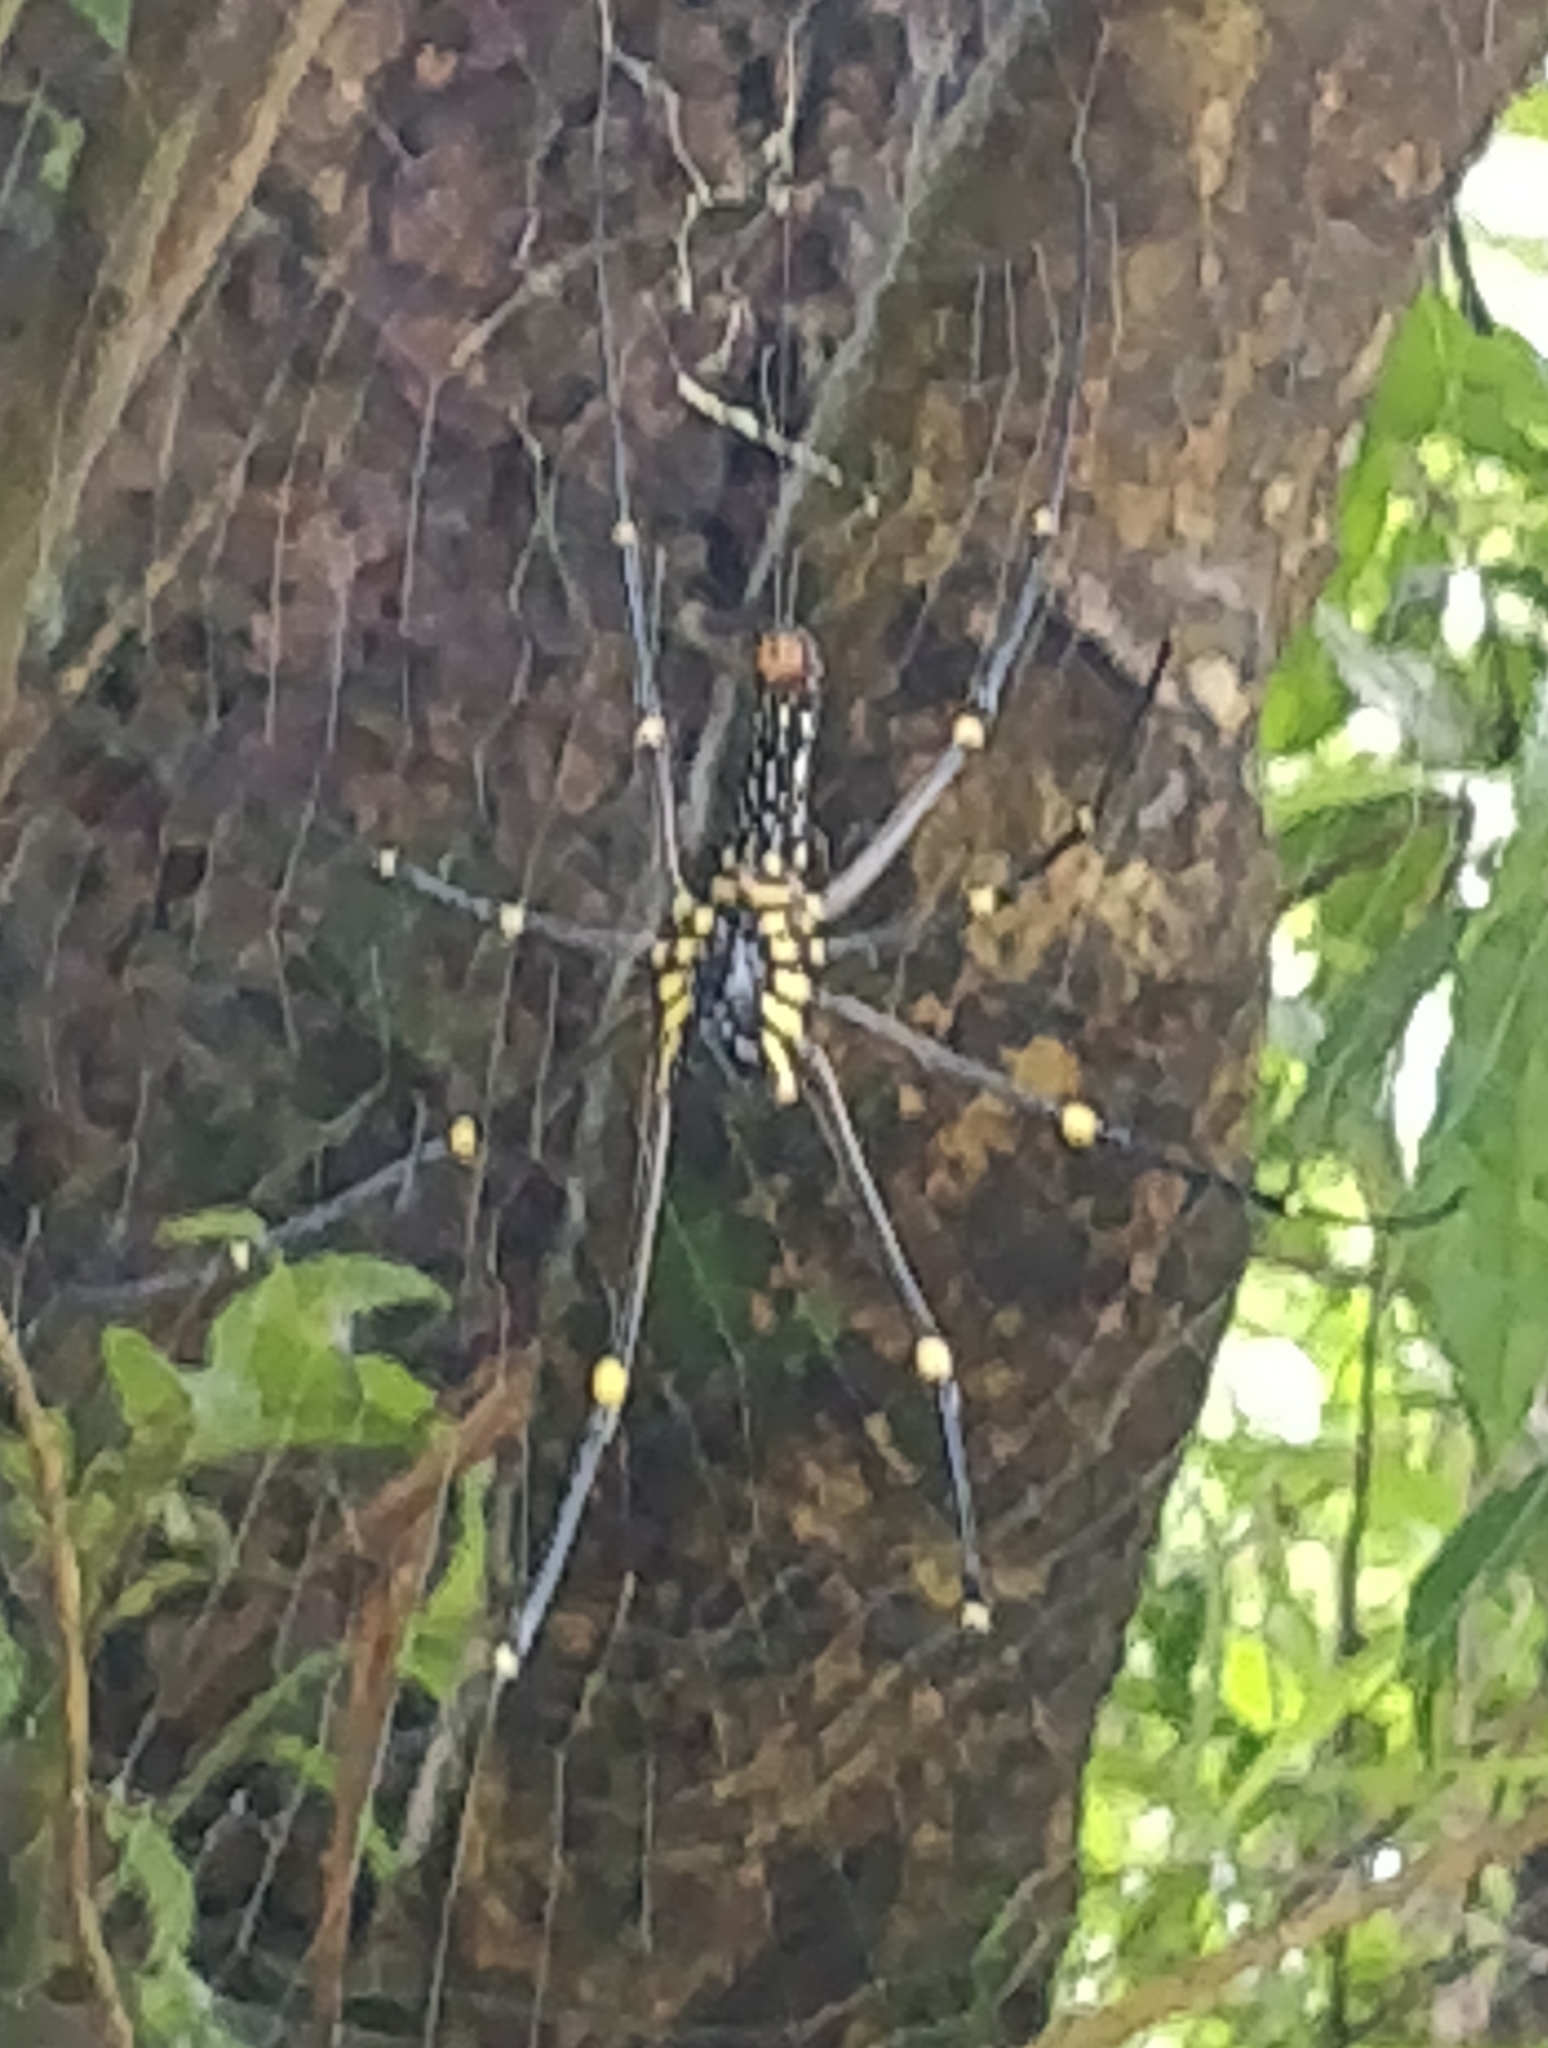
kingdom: Animalia
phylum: Arthropoda
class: Arachnida
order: Araneae
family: Araneidae
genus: Nephila
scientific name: Nephila pilipes
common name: Giant golden orb weaver
